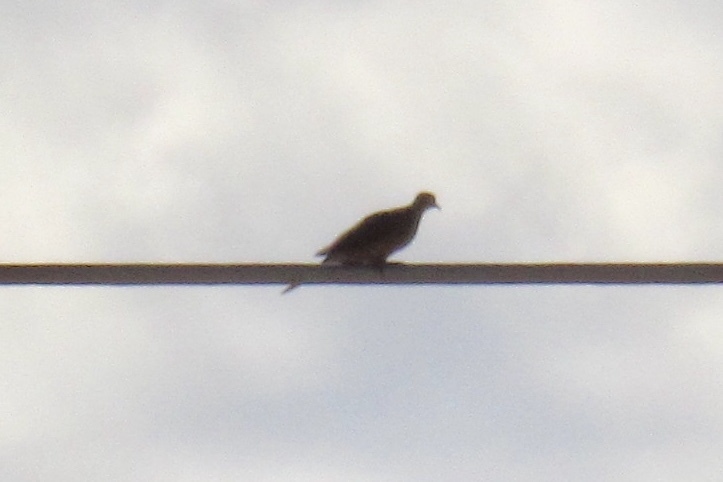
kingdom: Animalia
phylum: Chordata
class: Aves
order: Columbiformes
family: Columbidae
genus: Zenaida
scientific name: Zenaida macroura
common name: Mourning dove
